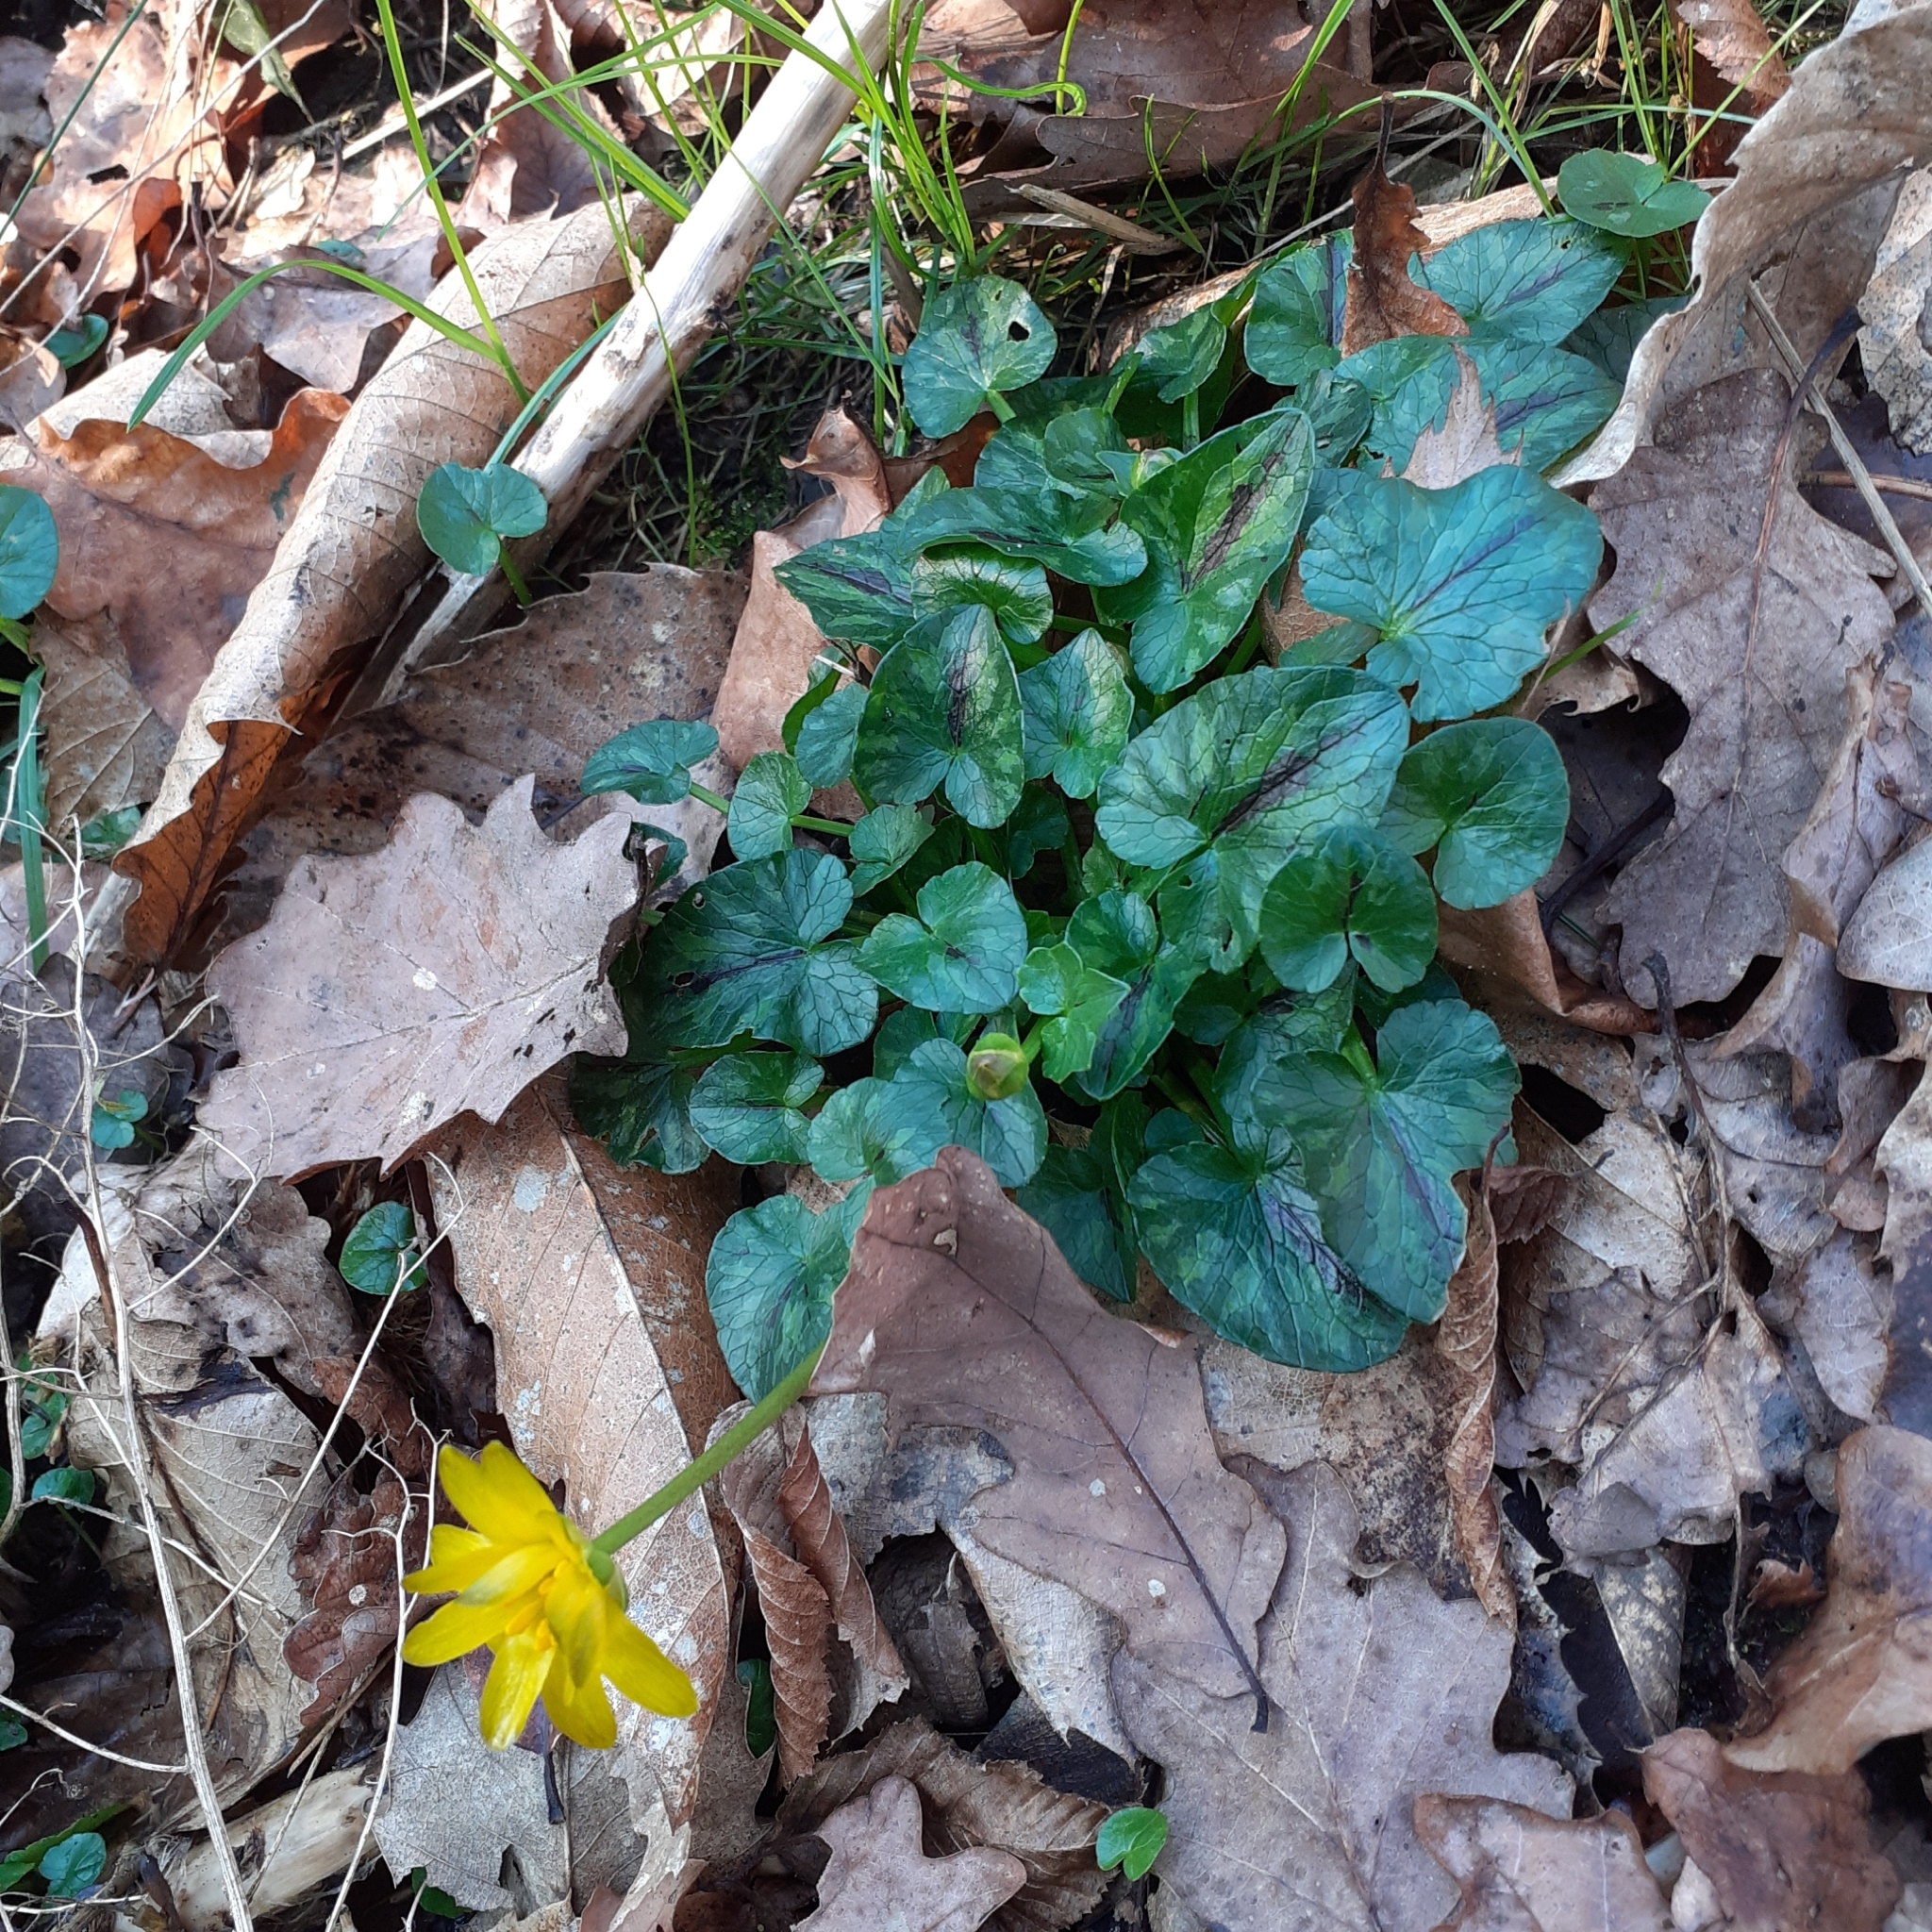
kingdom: Plantae
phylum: Tracheophyta
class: Magnoliopsida
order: Ranunculales
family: Ranunculaceae
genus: Ficaria
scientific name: Ficaria verna
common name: Lesser celandine
